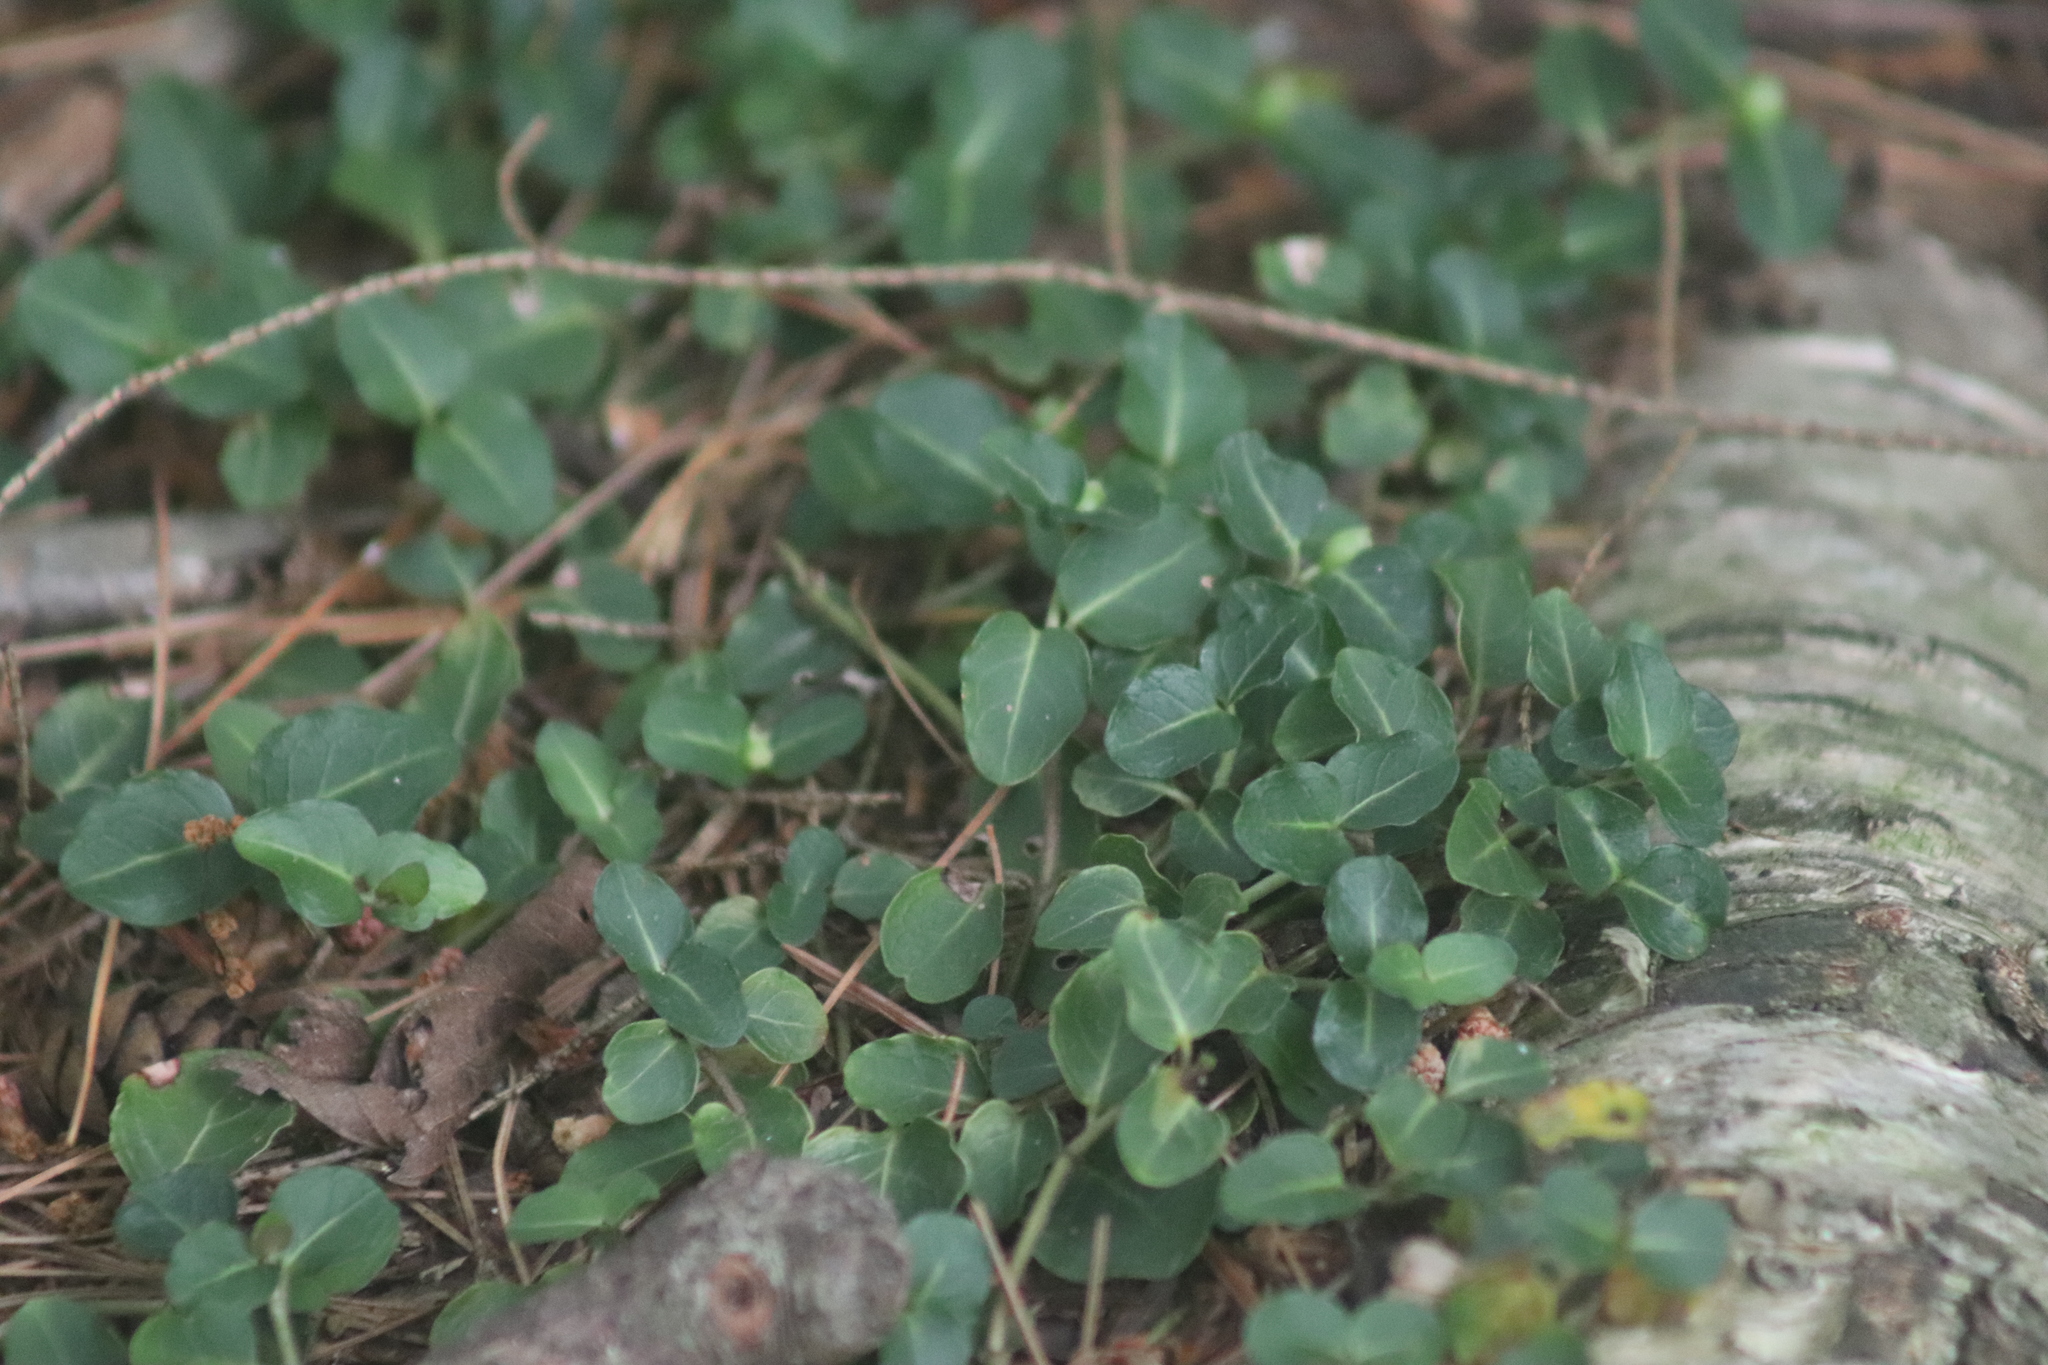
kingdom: Plantae
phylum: Tracheophyta
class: Magnoliopsida
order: Gentianales
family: Rubiaceae
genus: Mitchella
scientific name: Mitchella repens
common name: Partridge-berry
